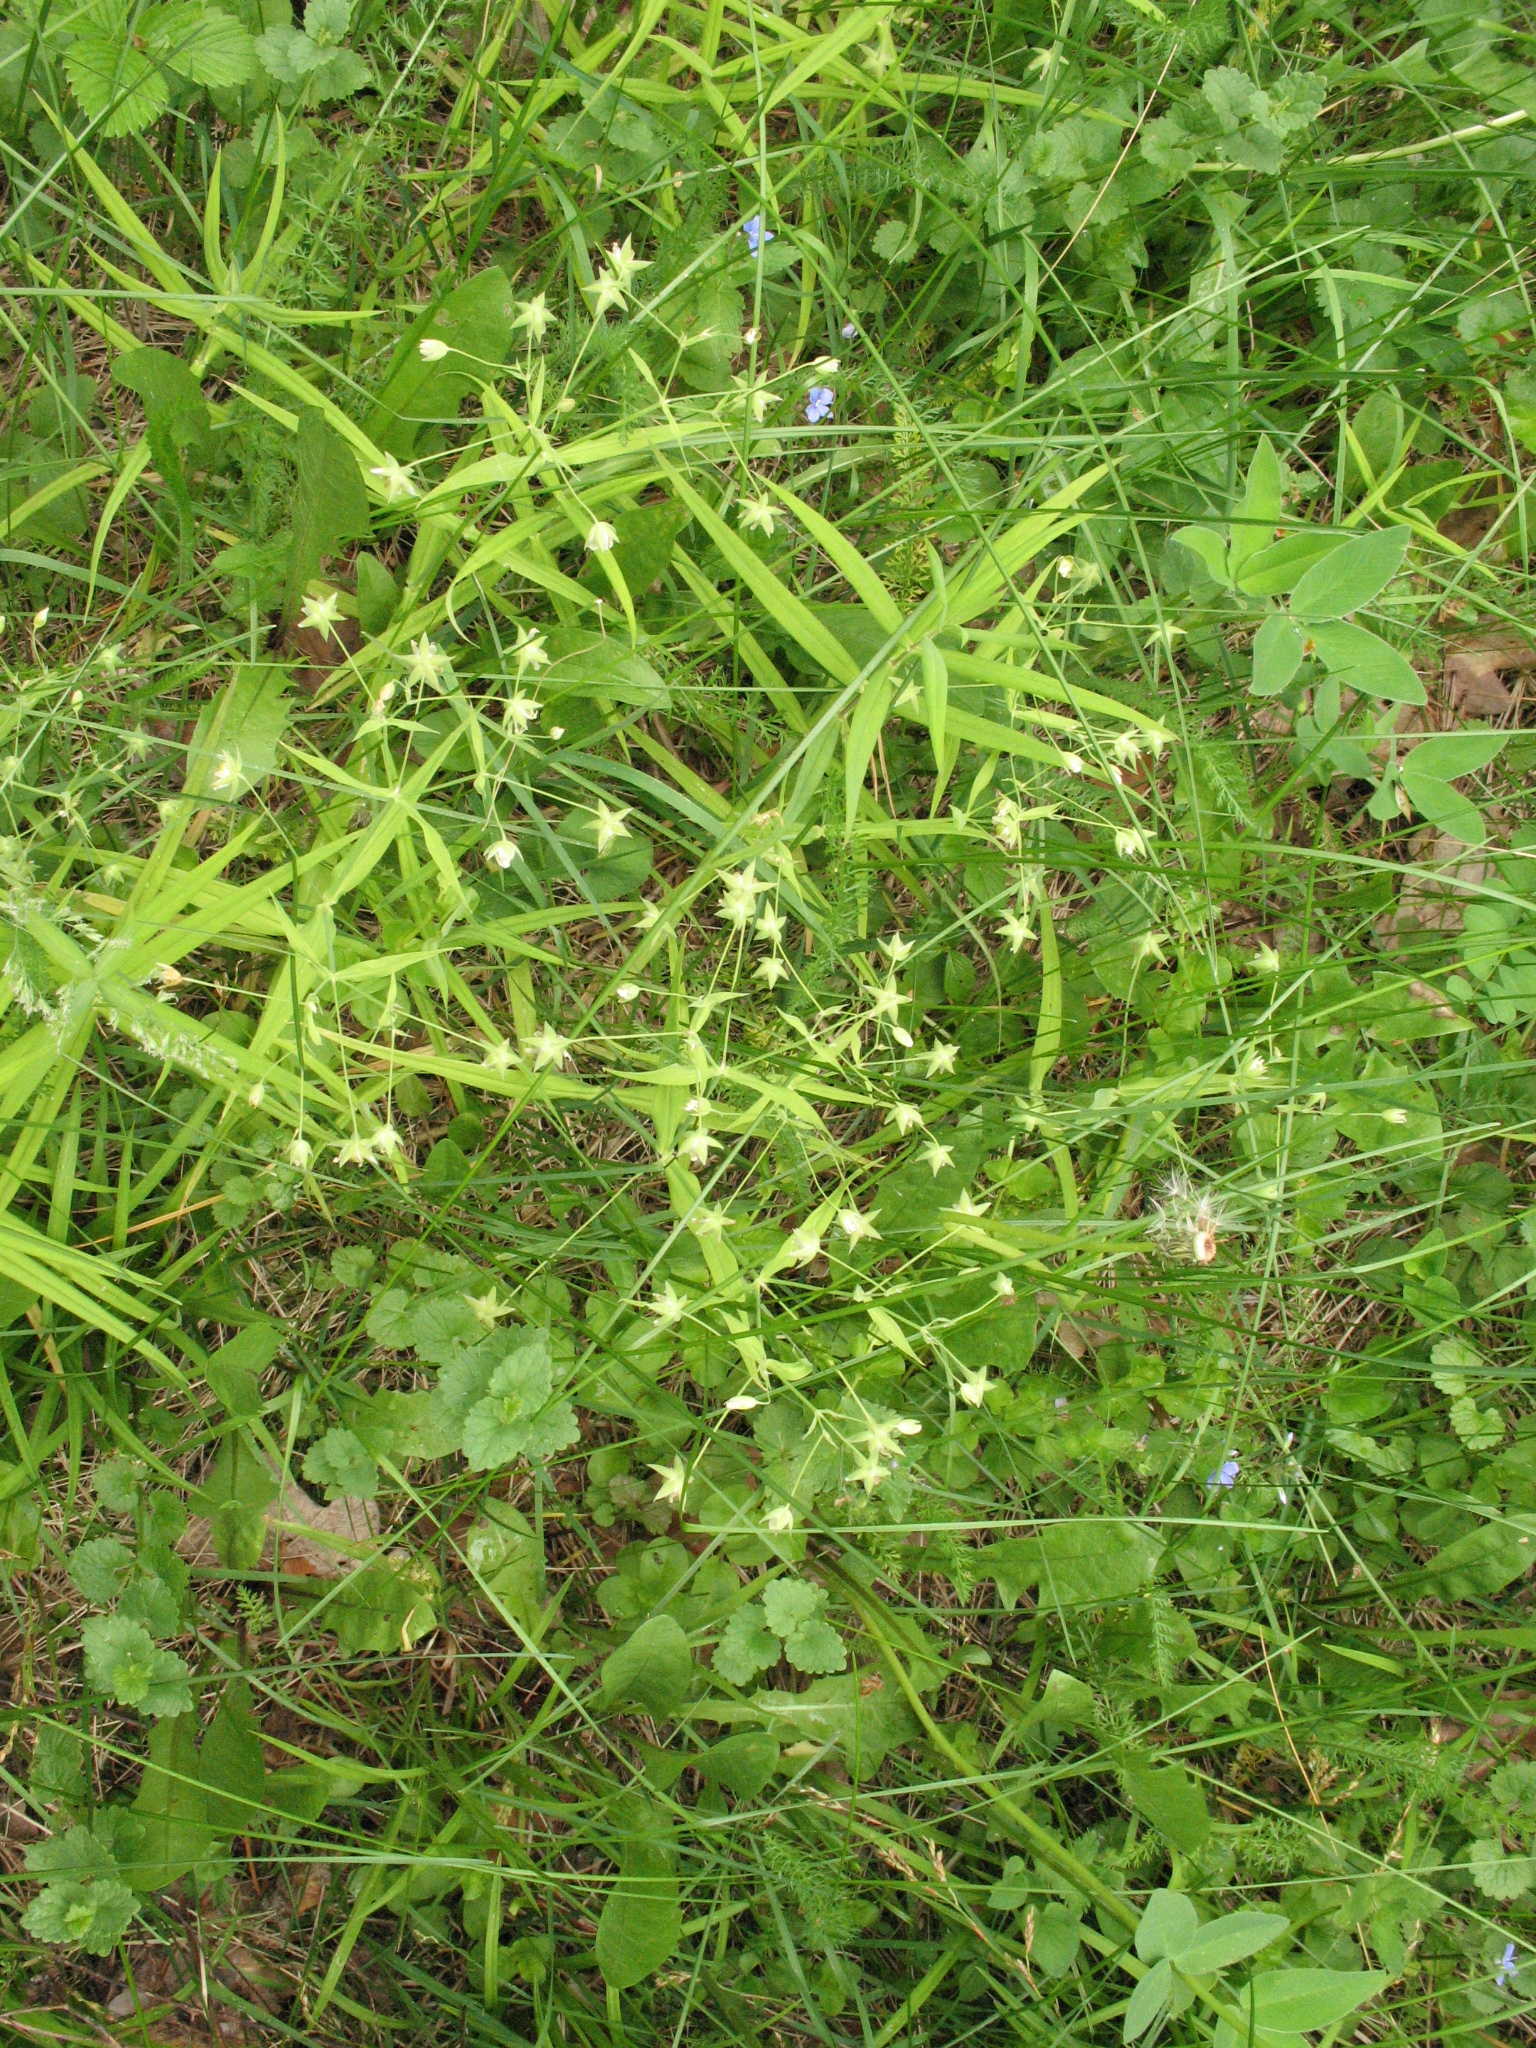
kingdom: Plantae
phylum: Tracheophyta
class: Magnoliopsida
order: Caryophyllales
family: Caryophyllaceae
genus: Rabelera
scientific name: Rabelera holostea
